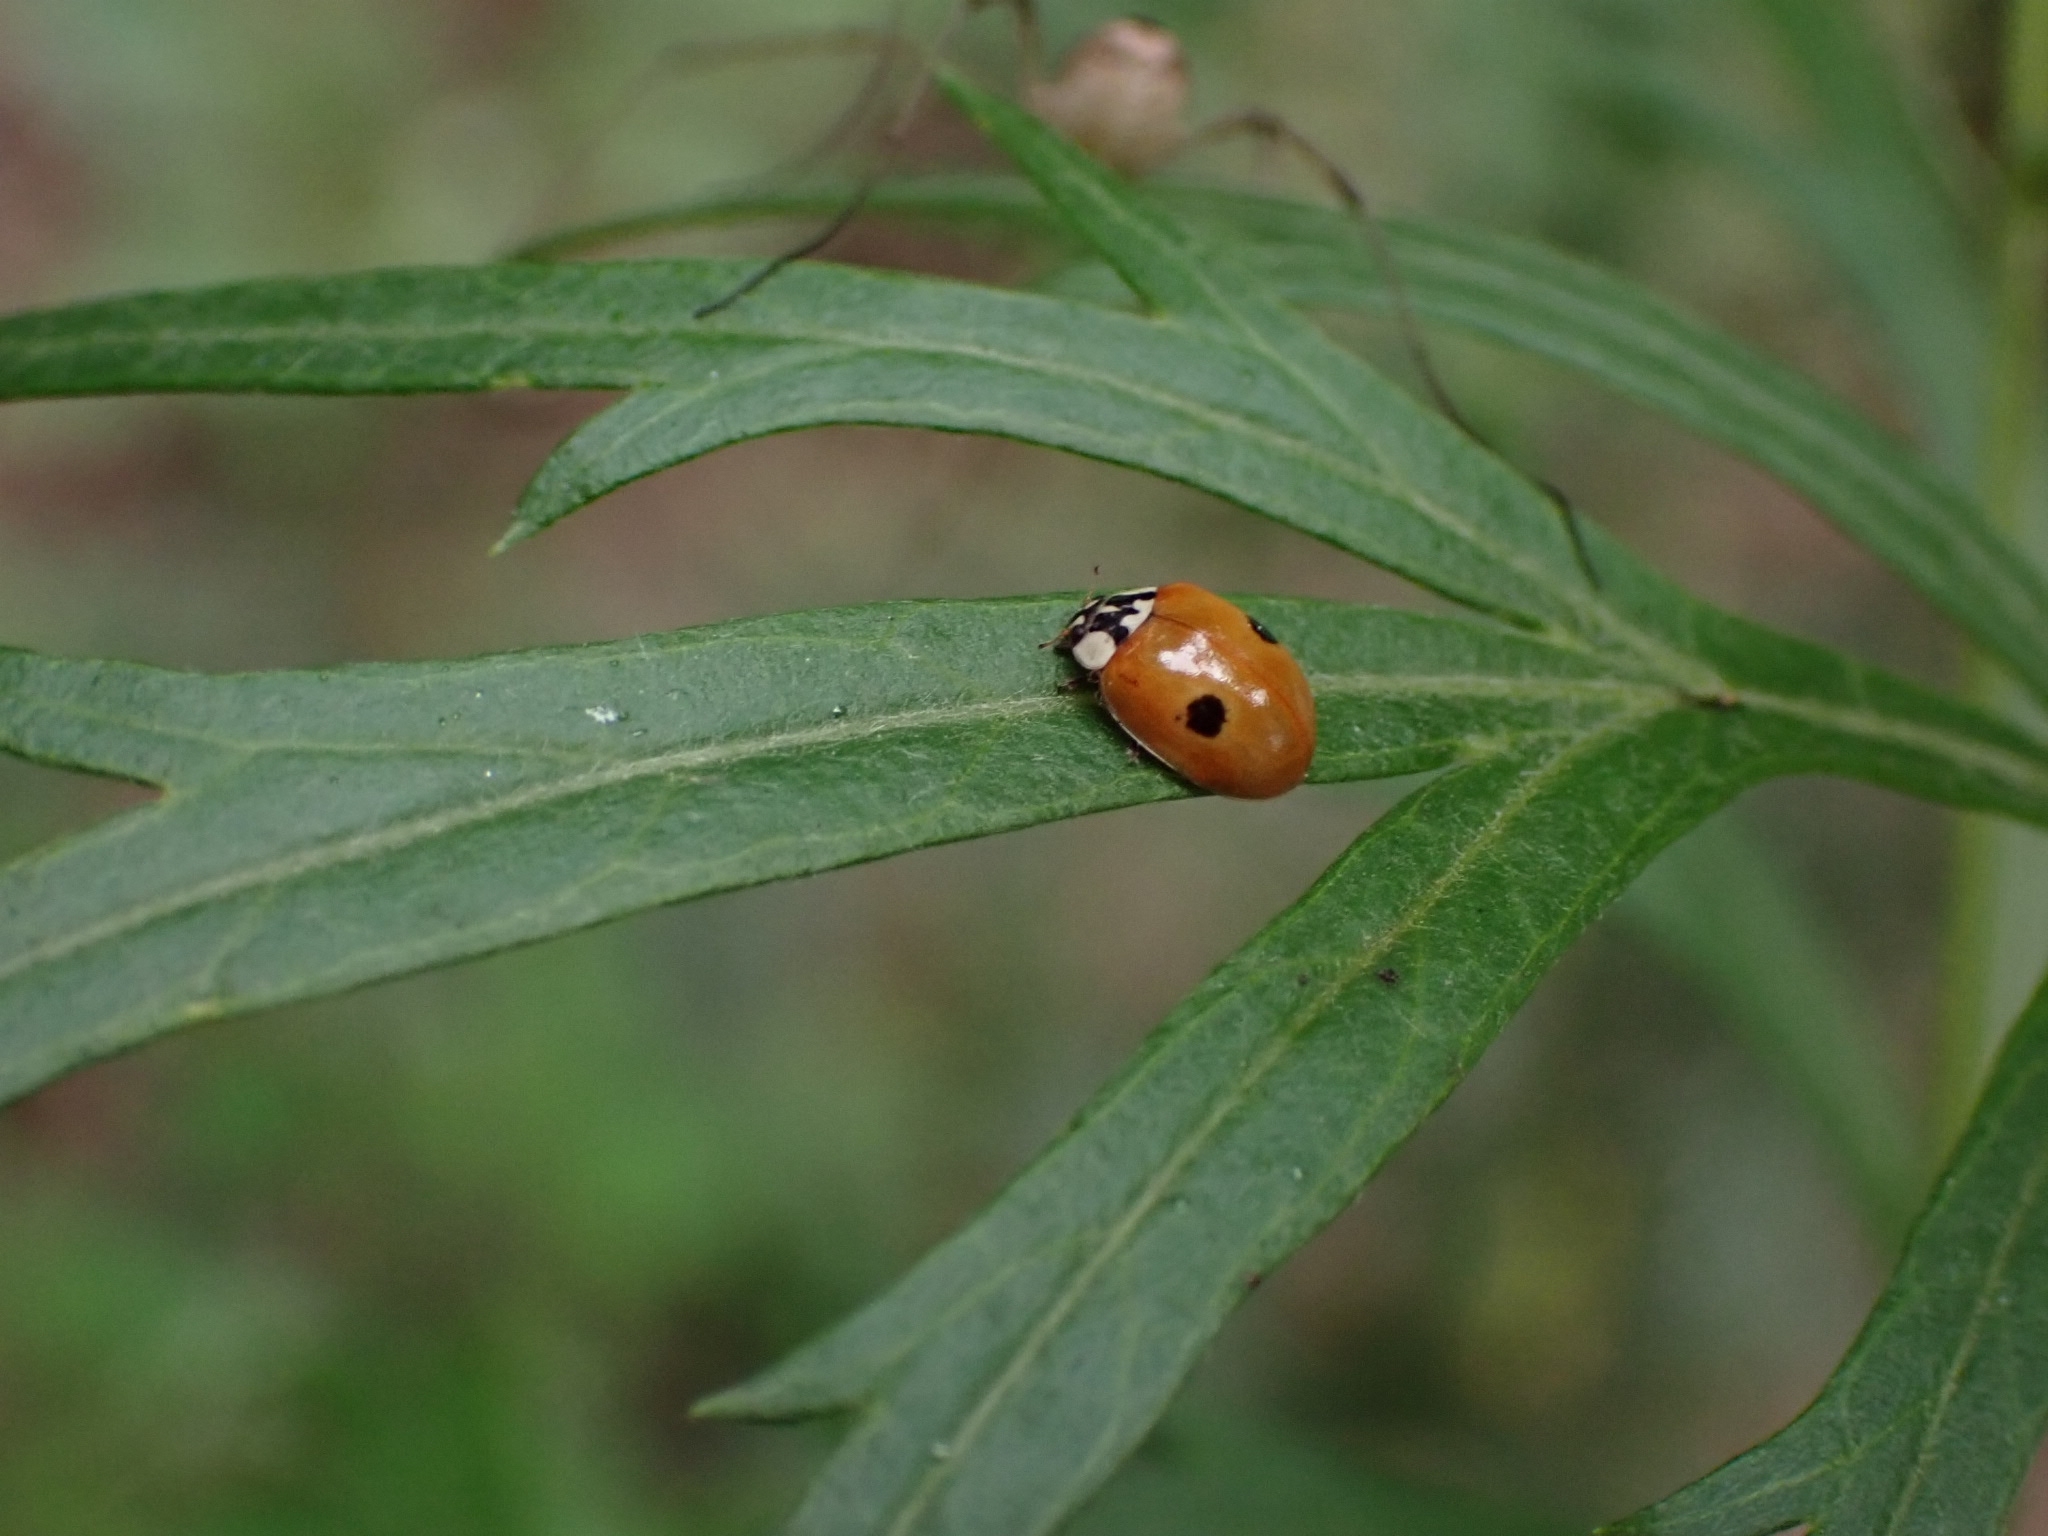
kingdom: Animalia
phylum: Arthropoda
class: Insecta
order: Coleoptera
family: Coccinellidae
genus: Adalia
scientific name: Adalia bipunctata
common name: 2-spot ladybird
